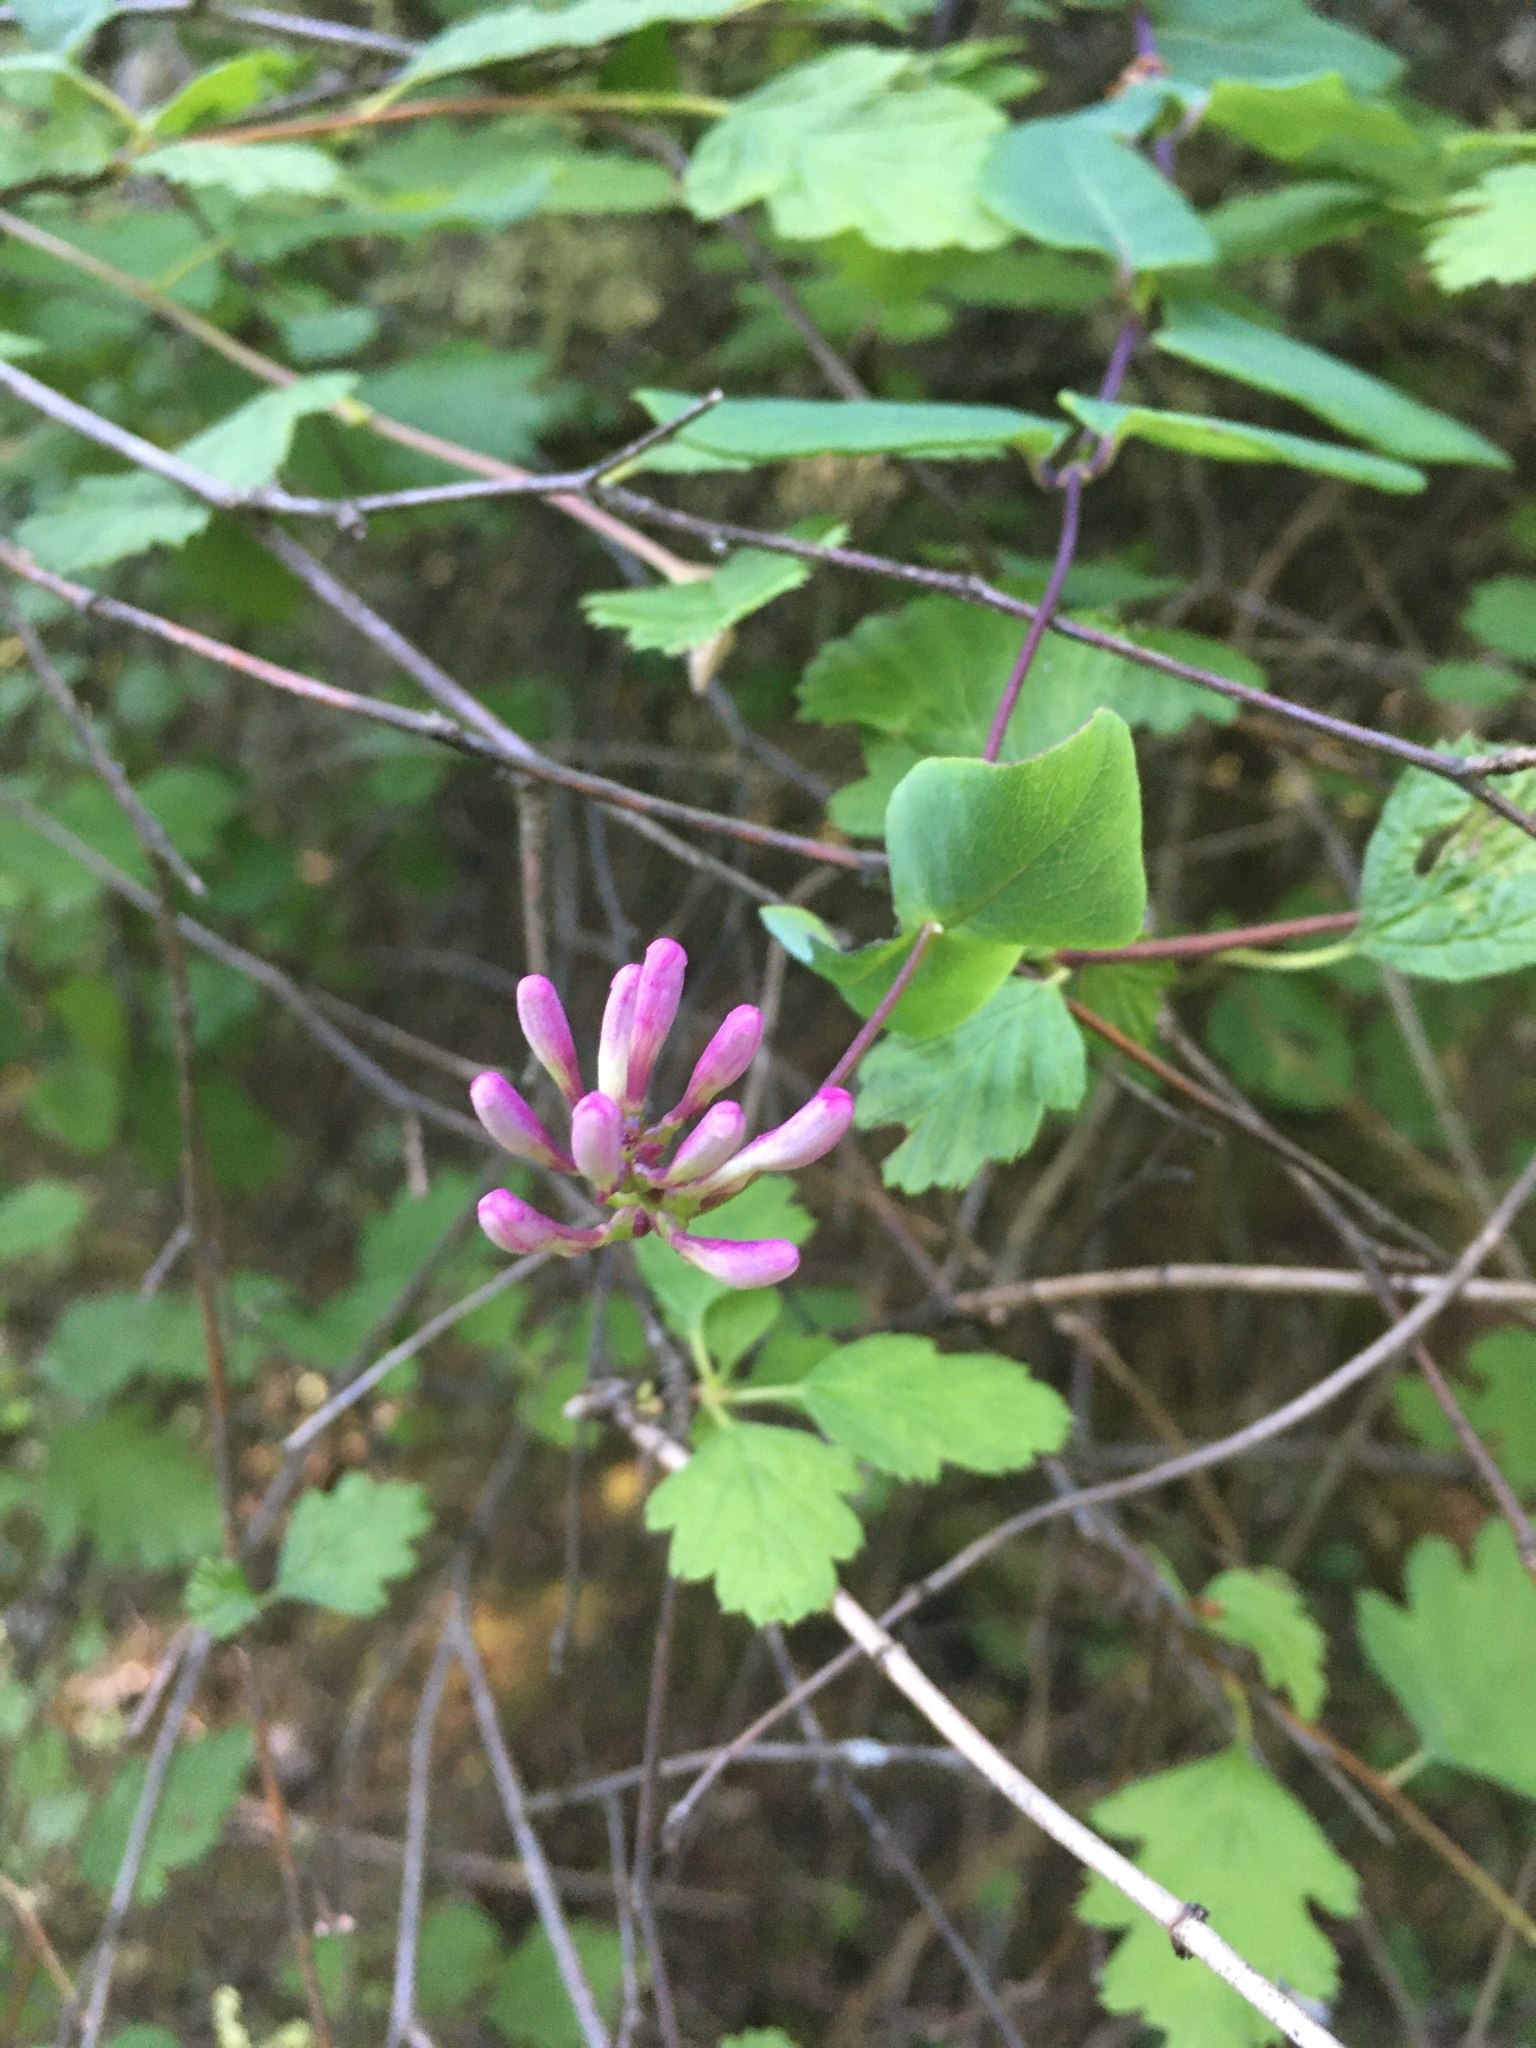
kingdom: Plantae
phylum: Tracheophyta
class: Magnoliopsida
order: Dipsacales
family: Caprifoliaceae
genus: Lonicera
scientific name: Lonicera hispidula
